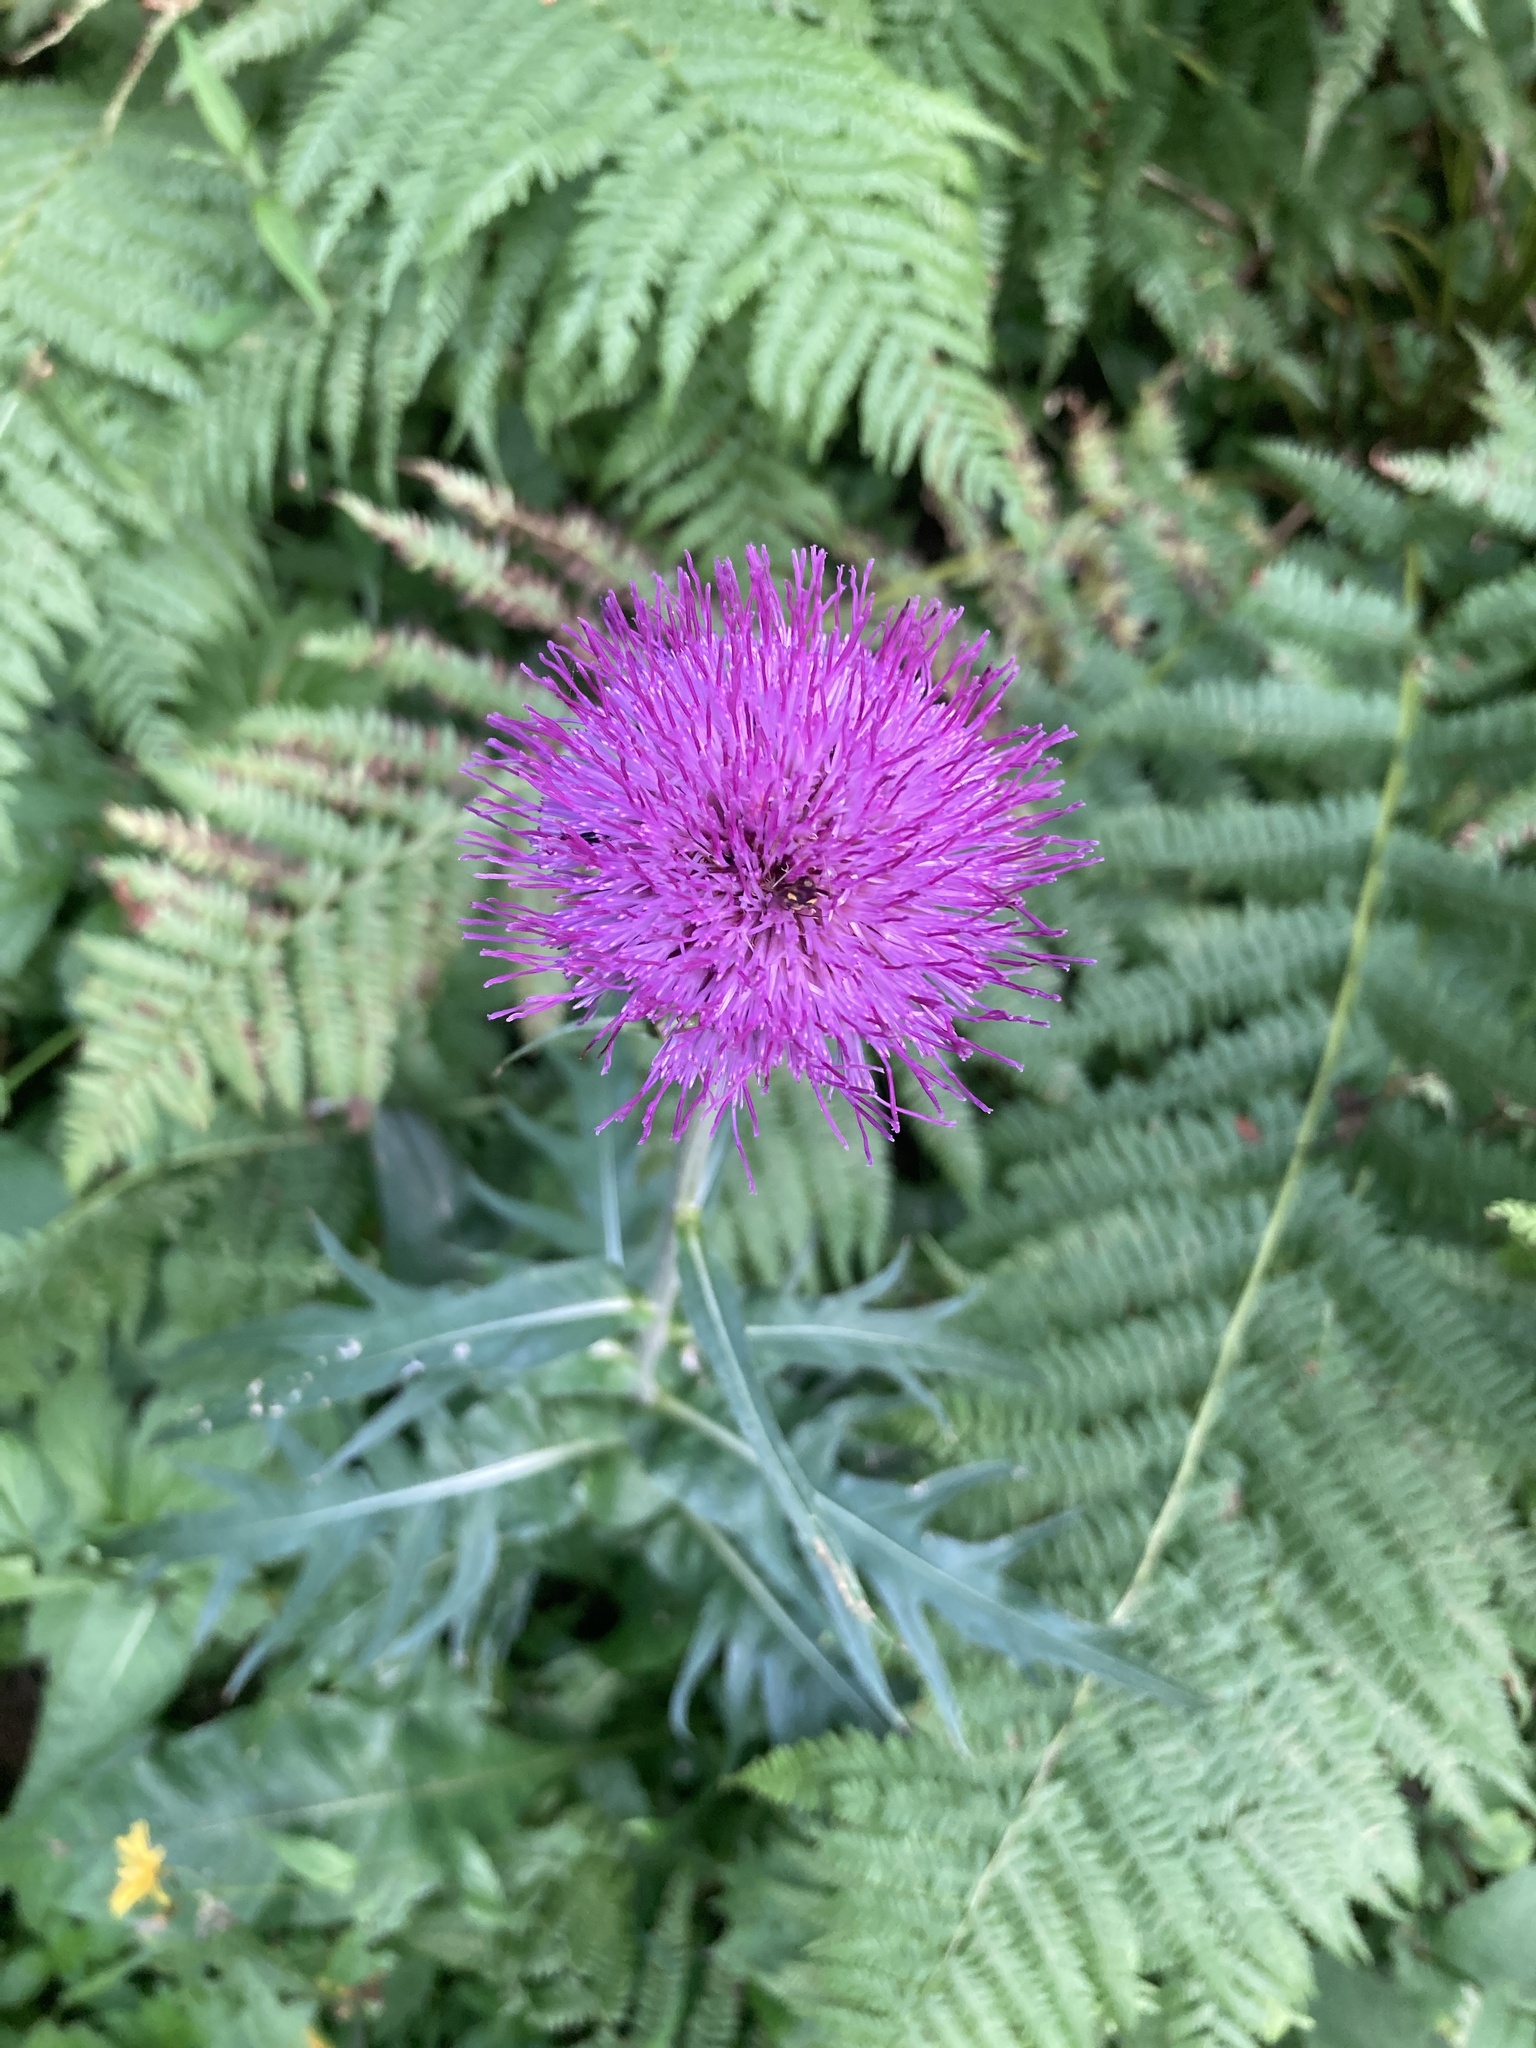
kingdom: Plantae
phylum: Tracheophyta
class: Magnoliopsida
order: Asterales
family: Asteraceae
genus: Cirsium
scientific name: Cirsium heterophyllum
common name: Melancholy thistle
